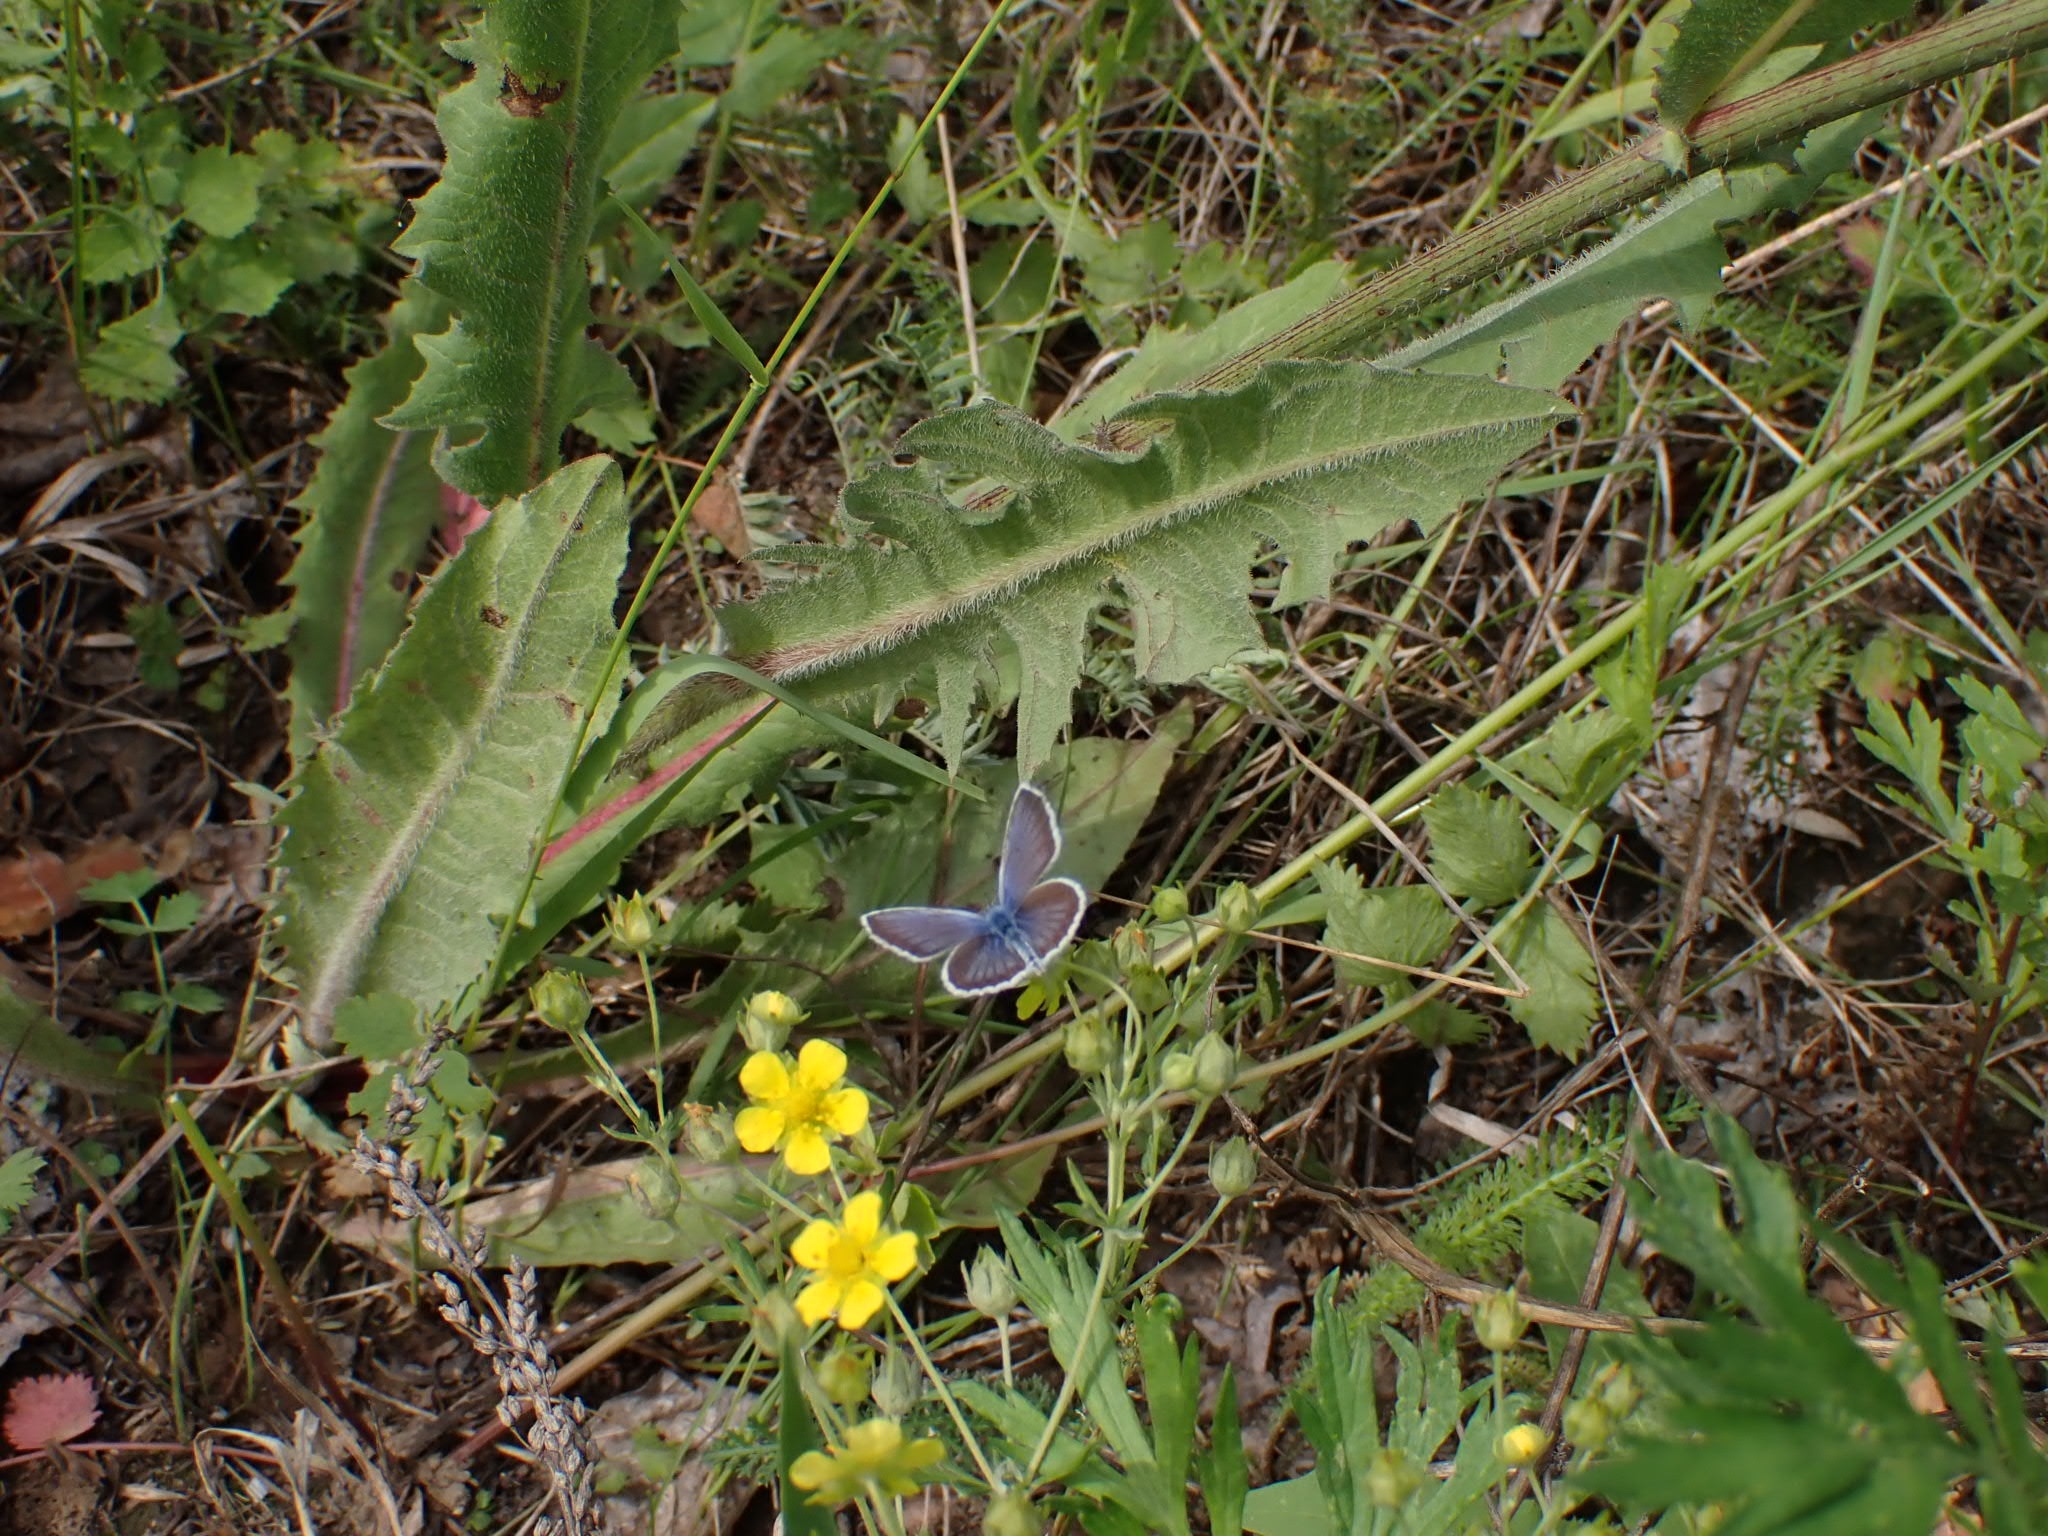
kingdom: Animalia
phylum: Arthropoda
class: Insecta
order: Lepidoptera
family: Lycaenidae
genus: Plebejus
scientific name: Plebejus argus
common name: Silver-studded blue
